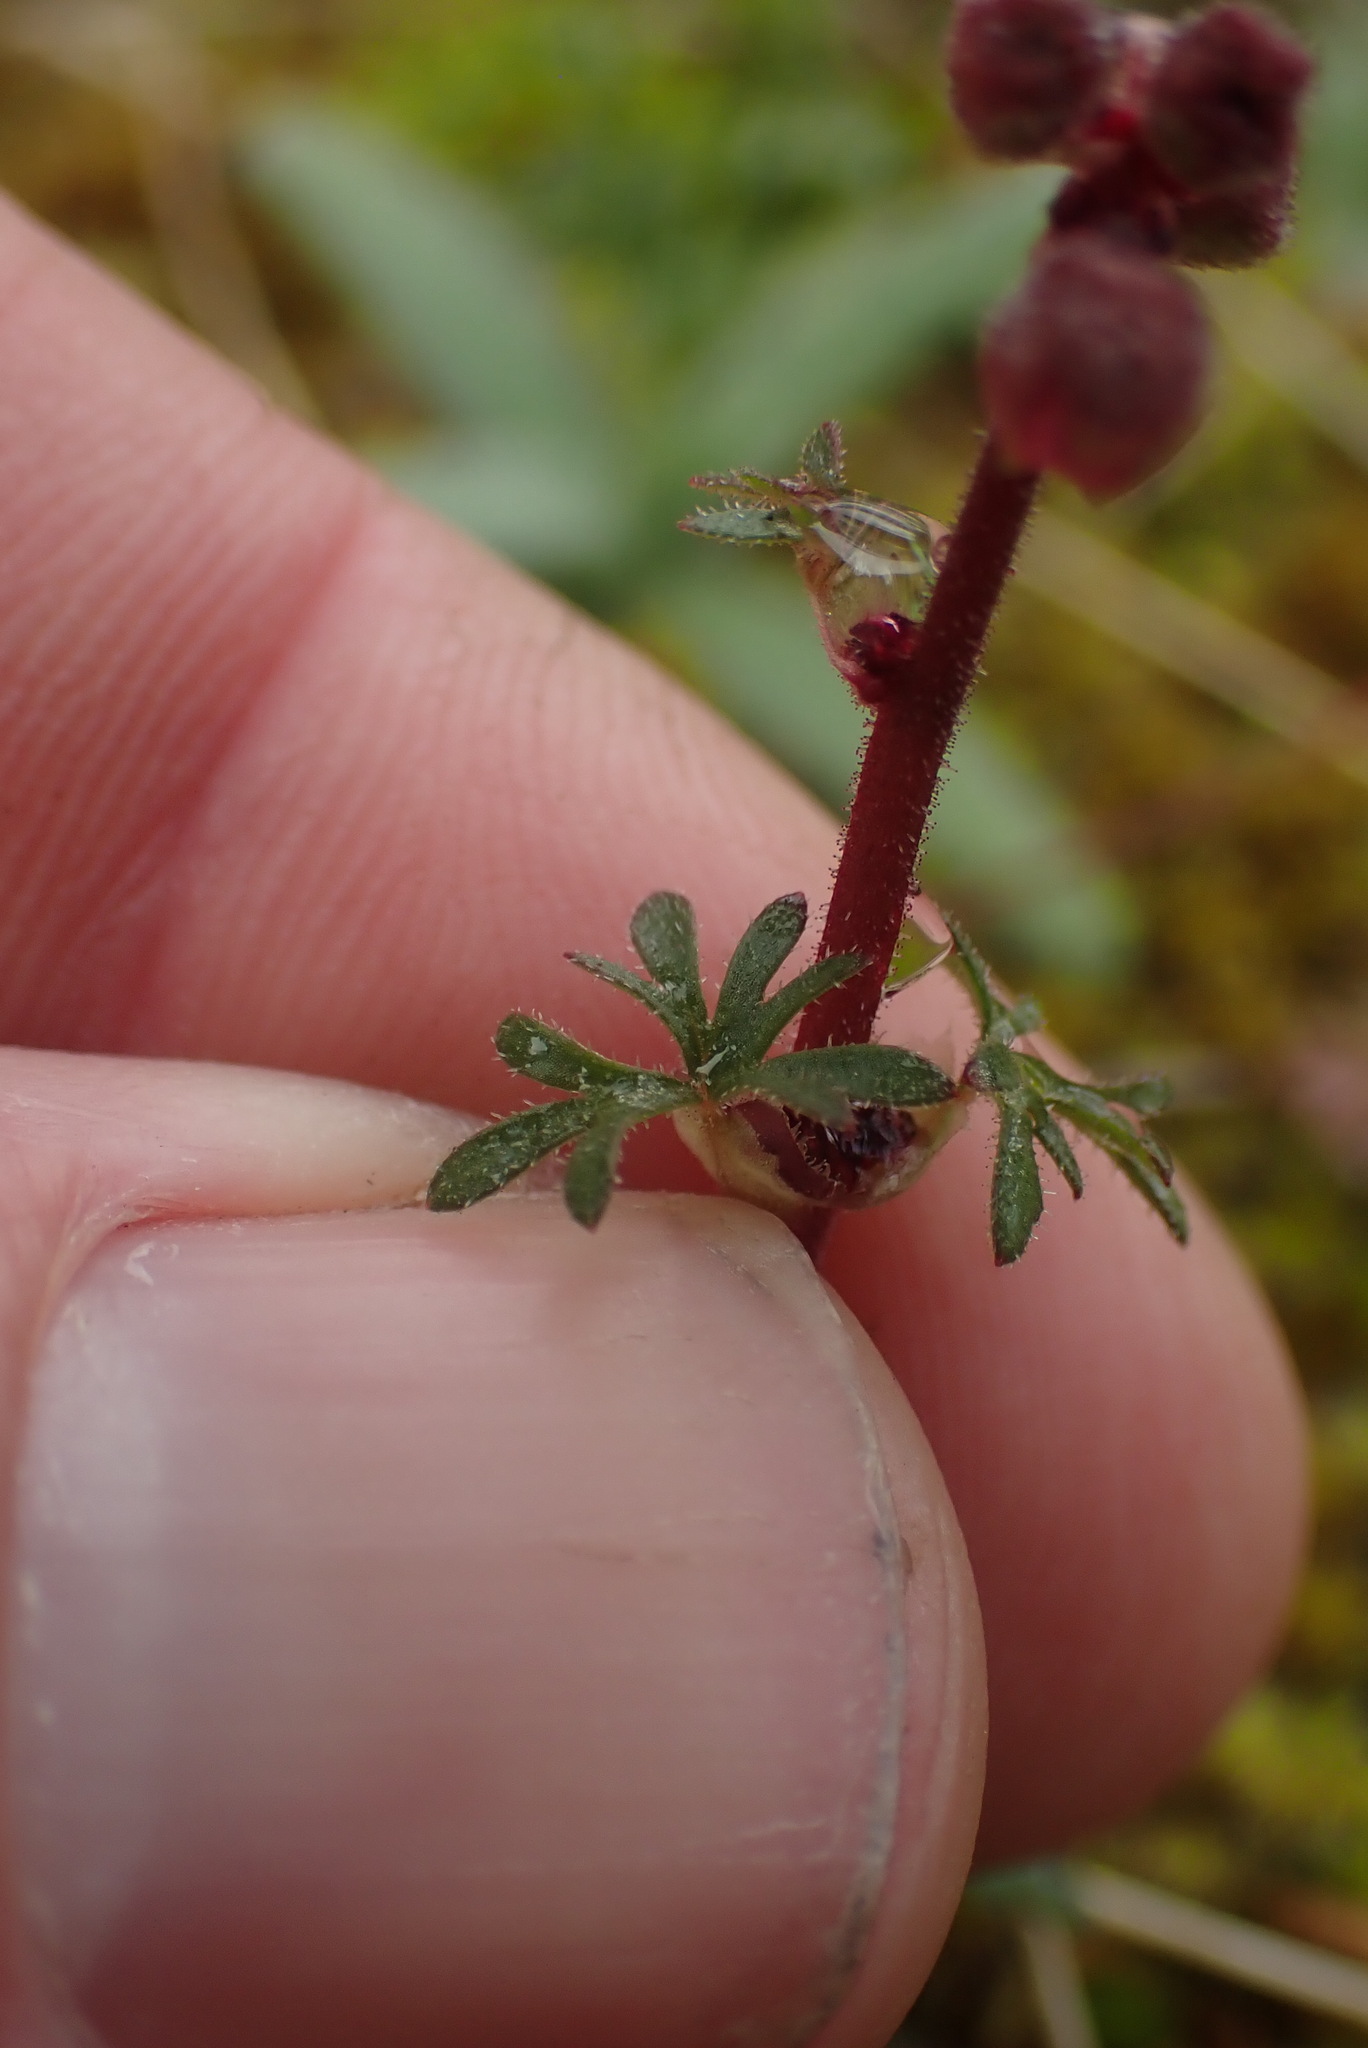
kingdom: Plantae
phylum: Tracheophyta
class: Magnoliopsida
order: Saxifragales
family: Saxifragaceae
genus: Lithophragma
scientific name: Lithophragma glabrum
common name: Bulbous prairie-star
